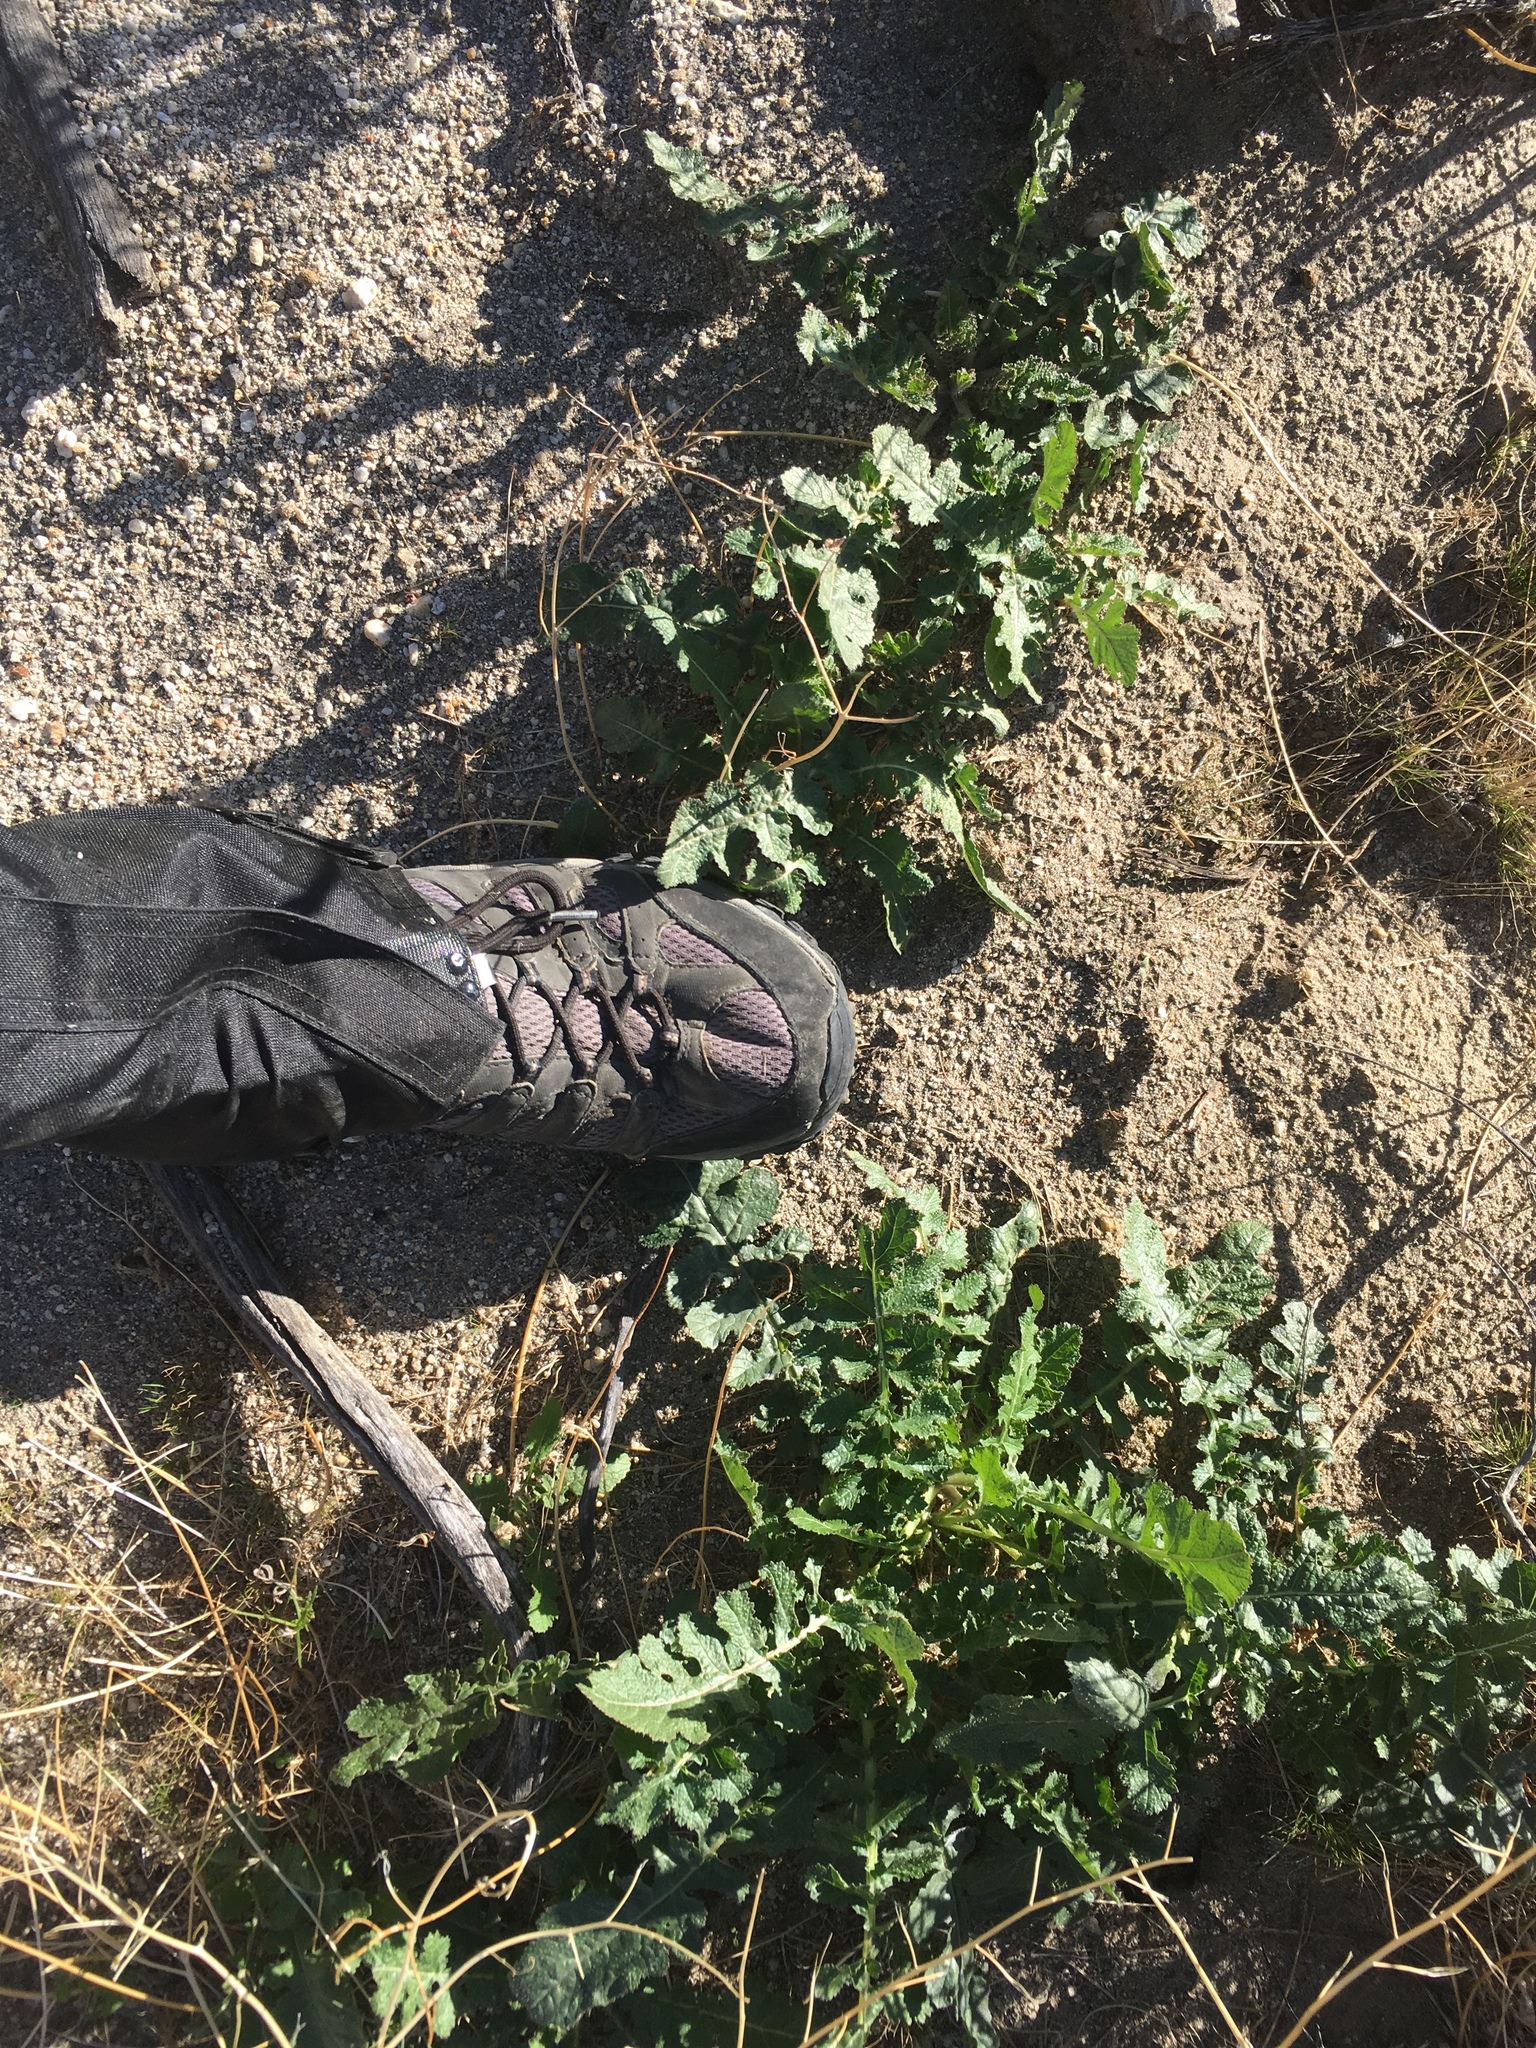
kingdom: Plantae
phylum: Tracheophyta
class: Magnoliopsida
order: Brassicales
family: Brassicaceae
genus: Brassica
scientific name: Brassica tournefortii
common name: Pale cabbage
